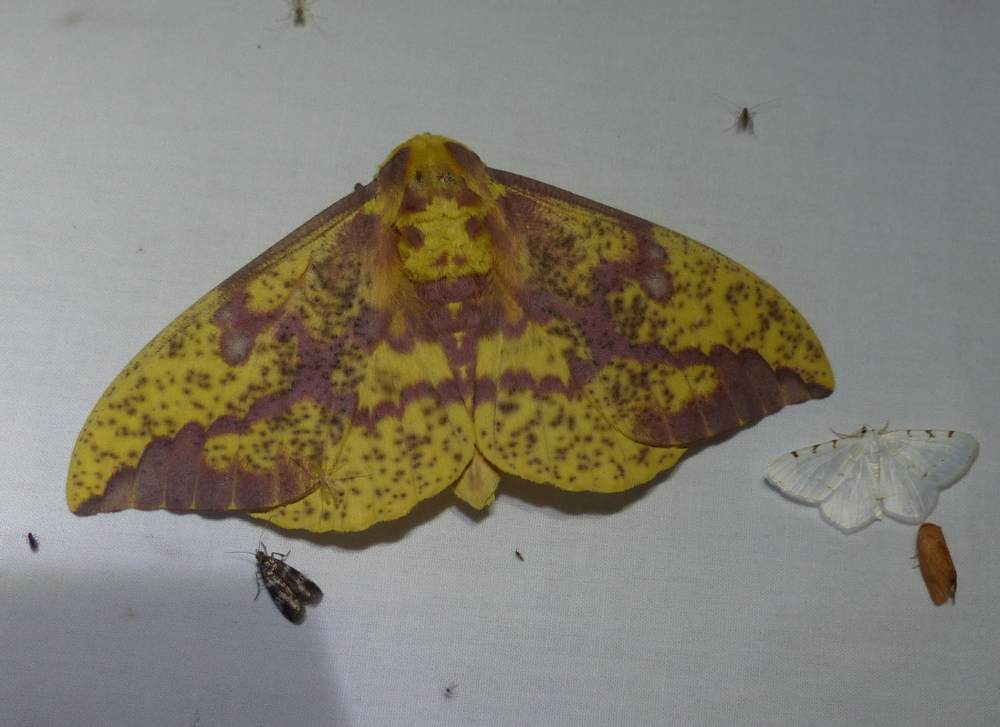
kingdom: Animalia
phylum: Arthropoda
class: Insecta
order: Lepidoptera
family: Saturniidae
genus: Eacles
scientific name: Eacles
